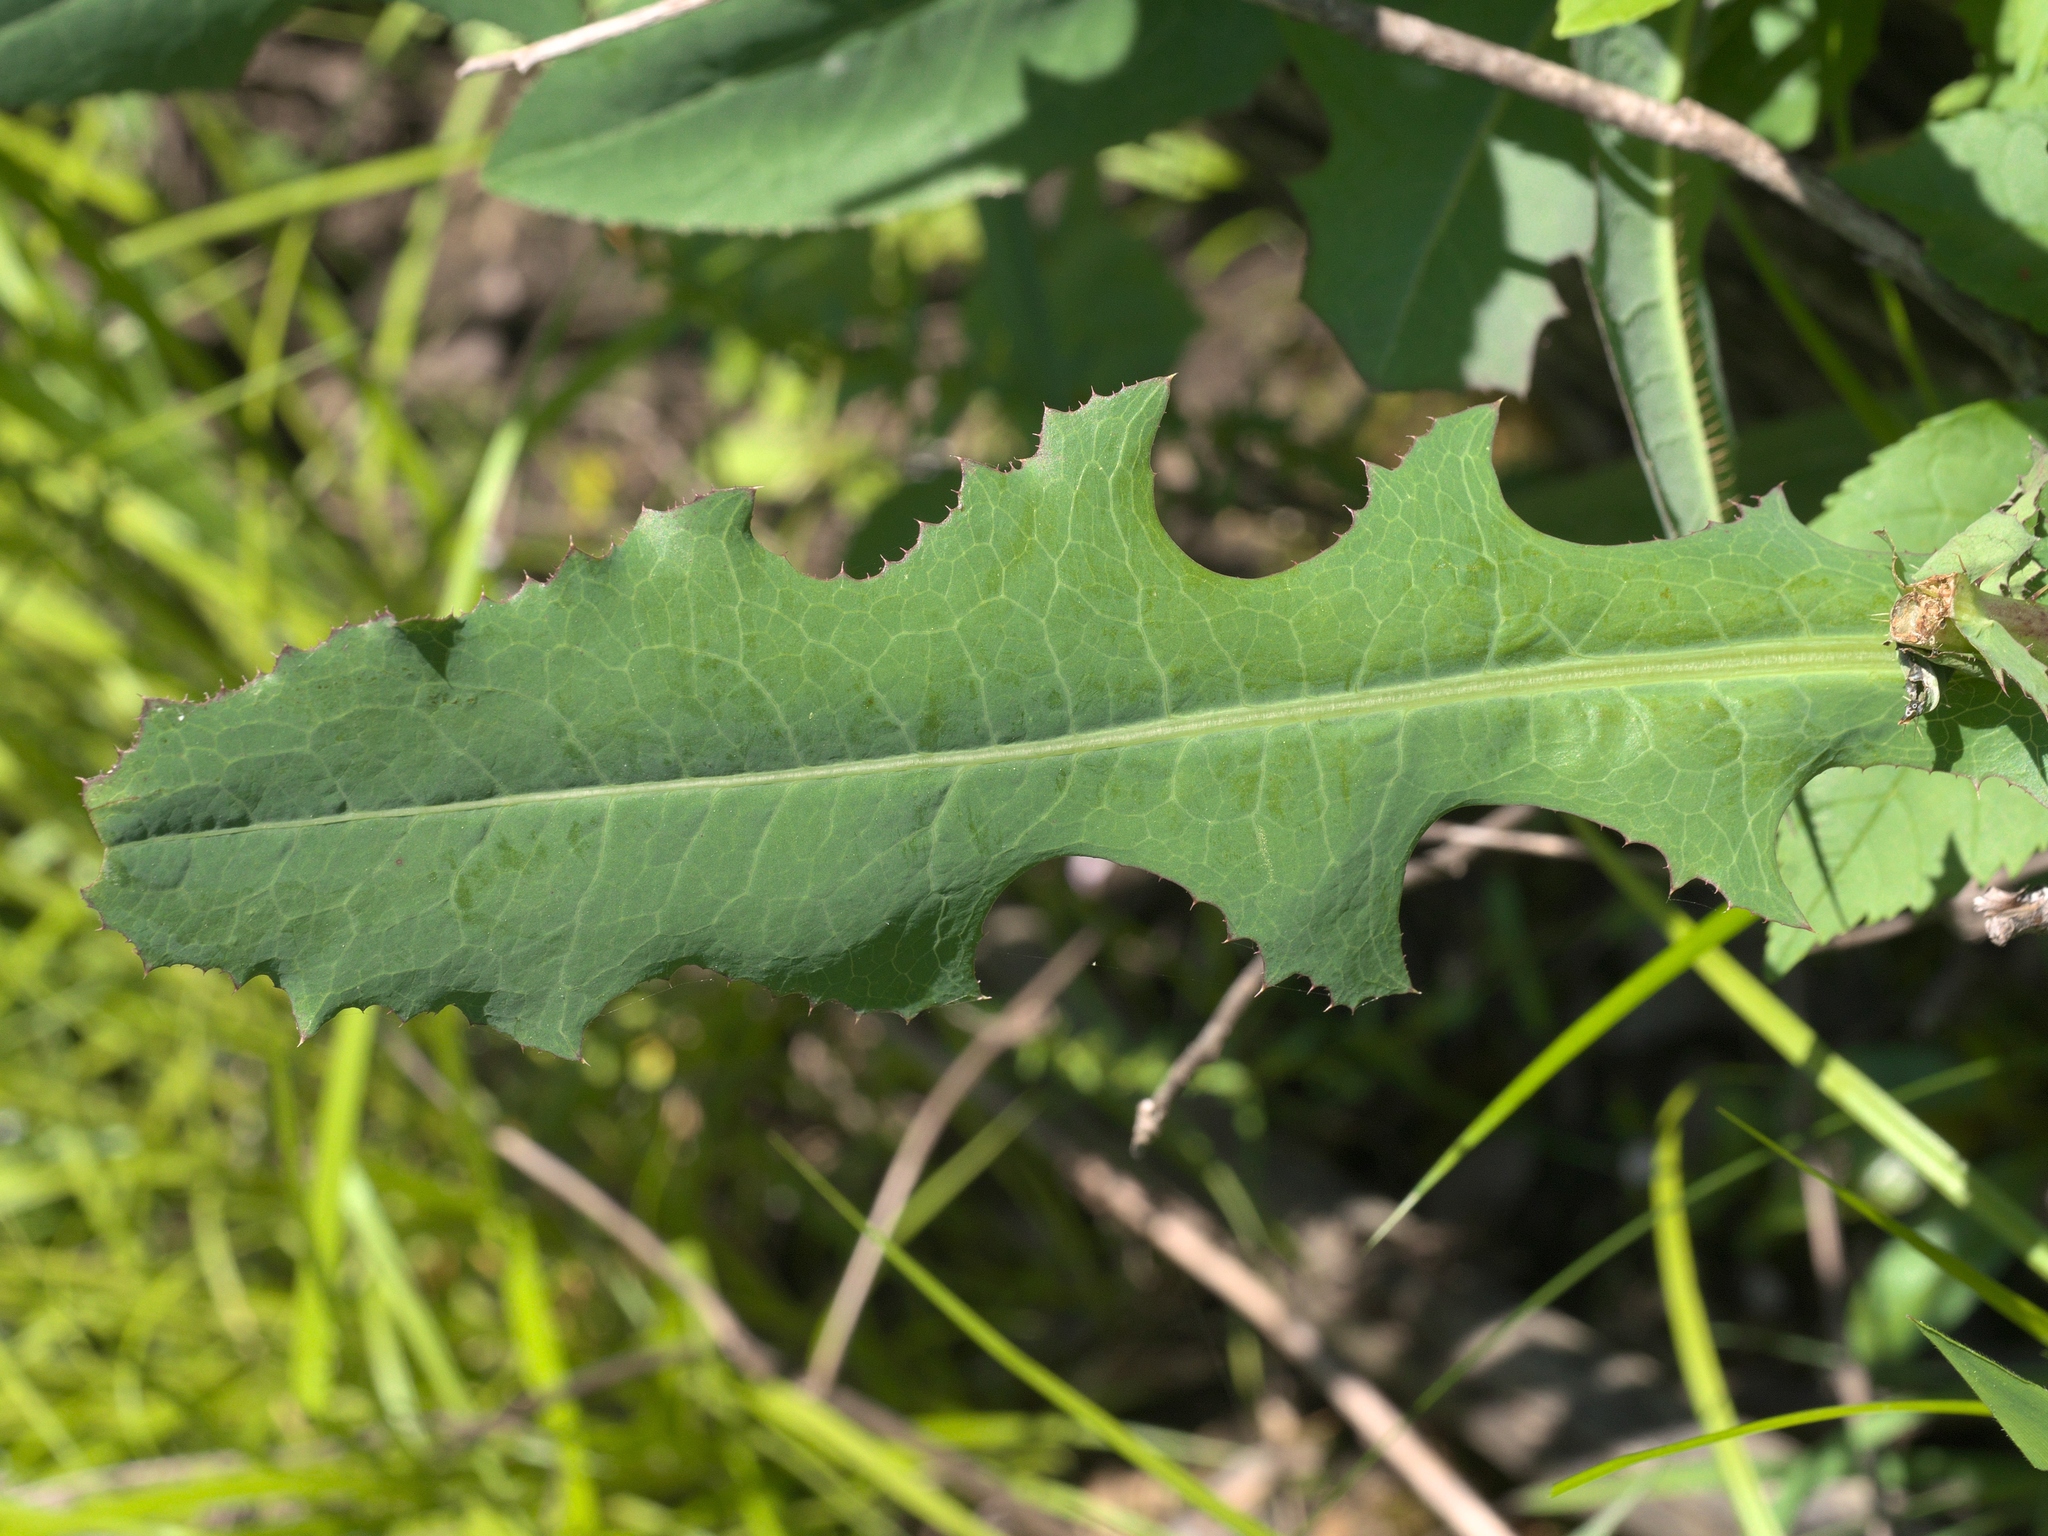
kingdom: Plantae
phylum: Tracheophyta
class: Magnoliopsida
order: Asterales
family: Asteraceae
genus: Lactuca
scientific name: Lactuca serriola
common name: Prickly lettuce
